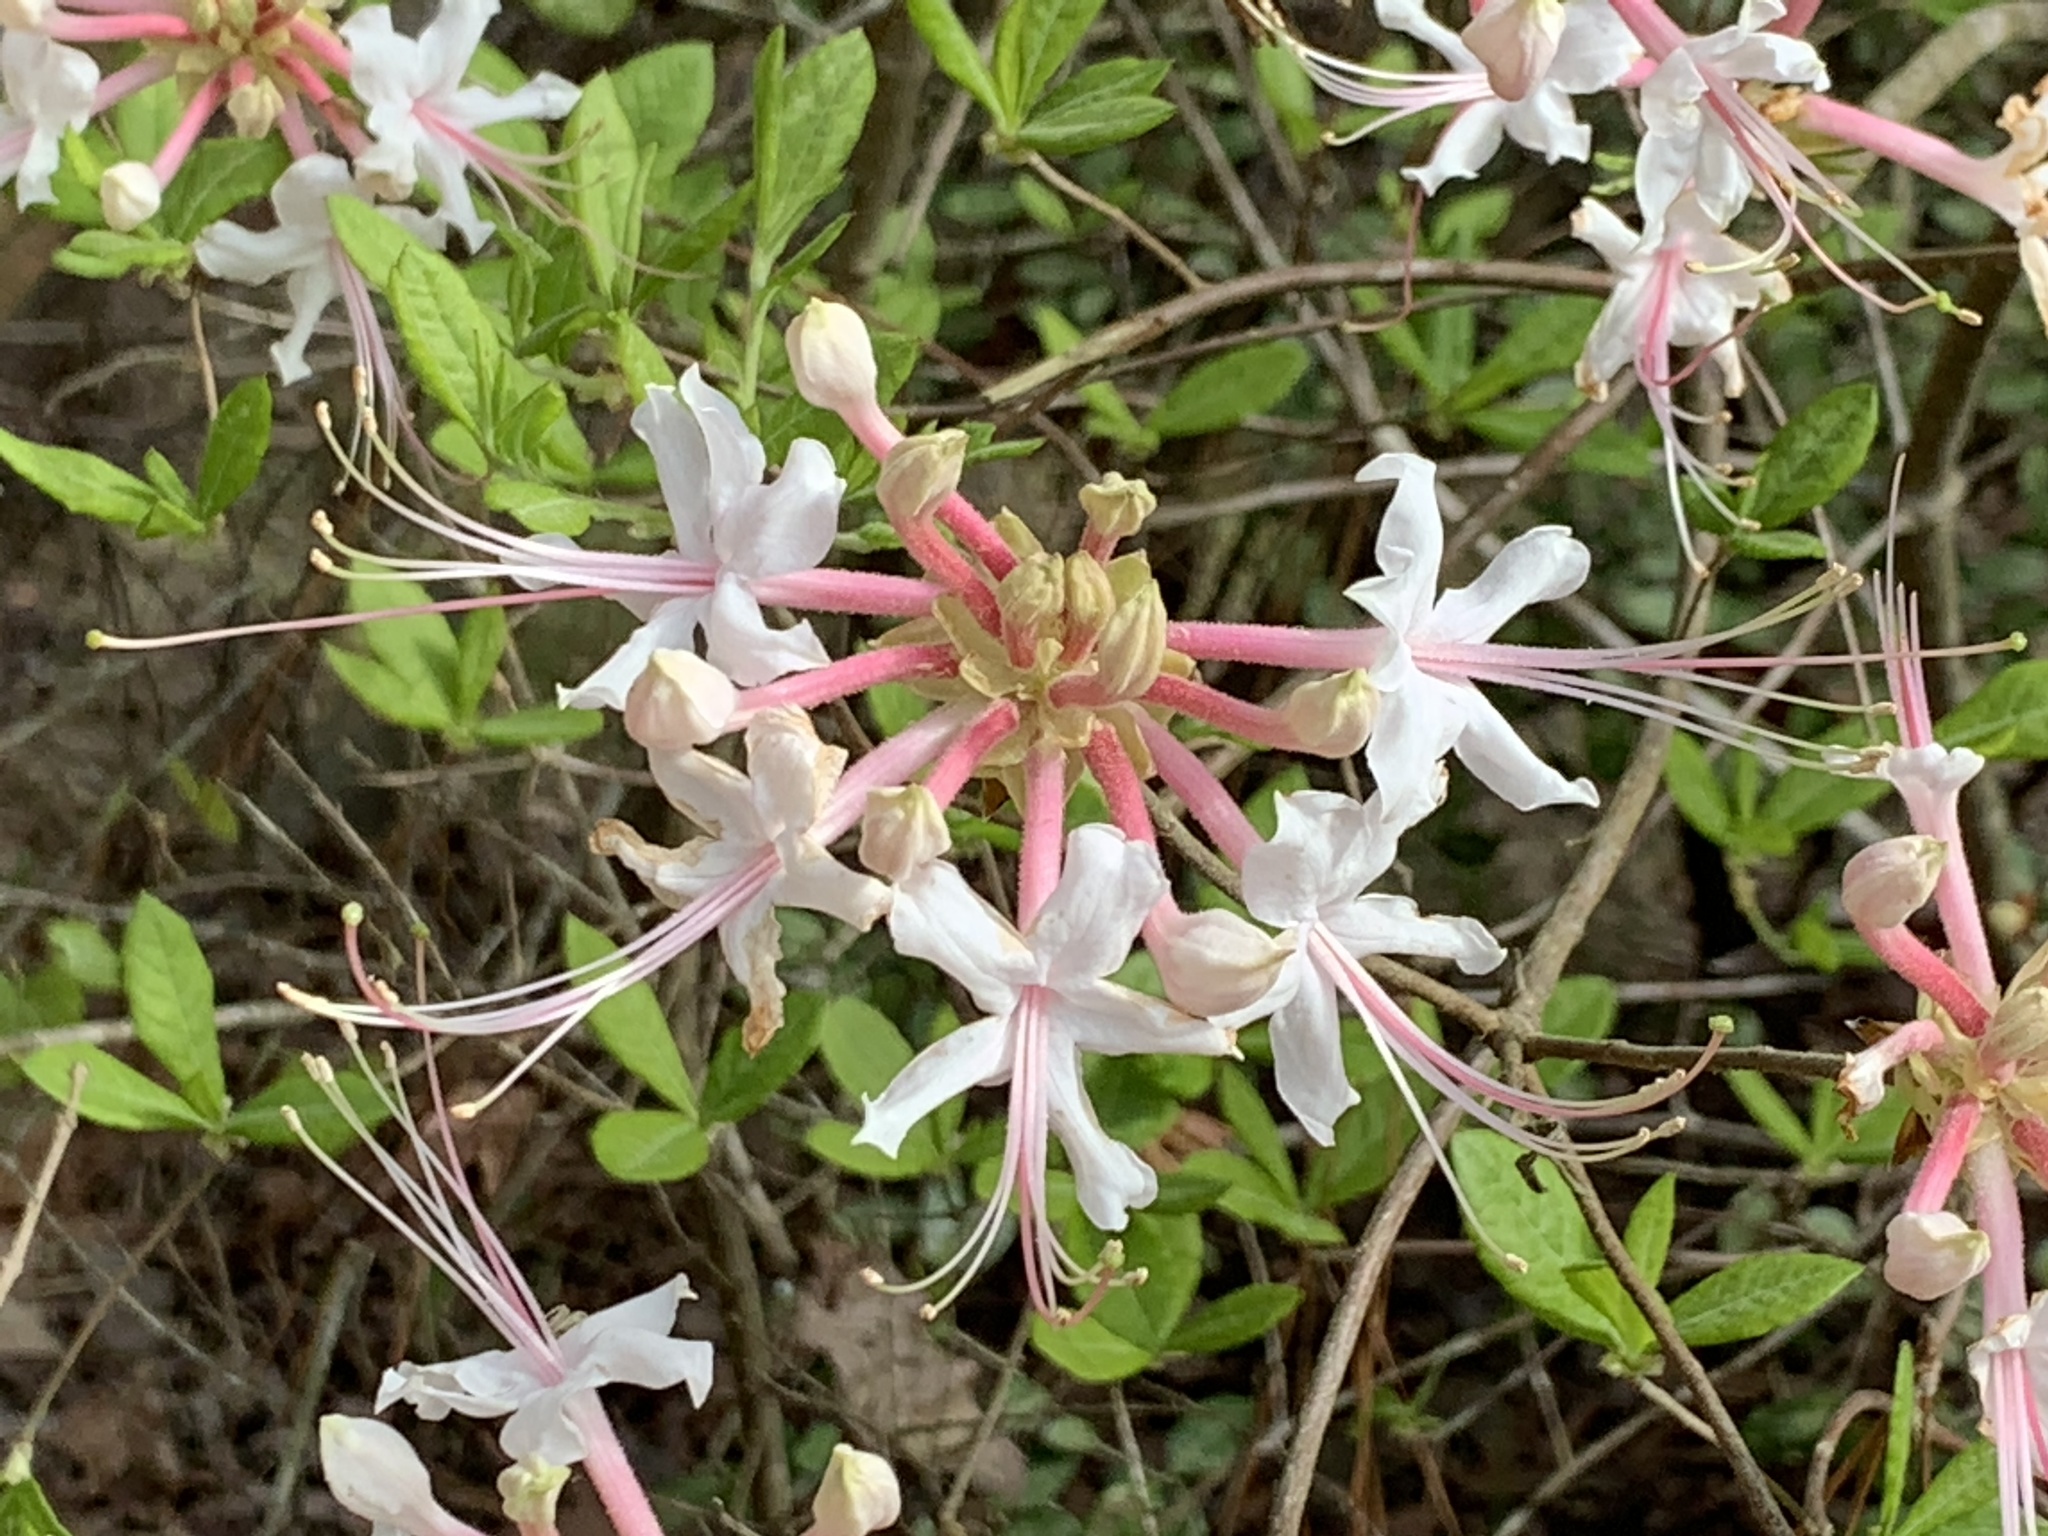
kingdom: Plantae
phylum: Tracheophyta
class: Magnoliopsida
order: Ericales
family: Ericaceae
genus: Rhododendron
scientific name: Rhododendron canescens
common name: Mountain azalea
